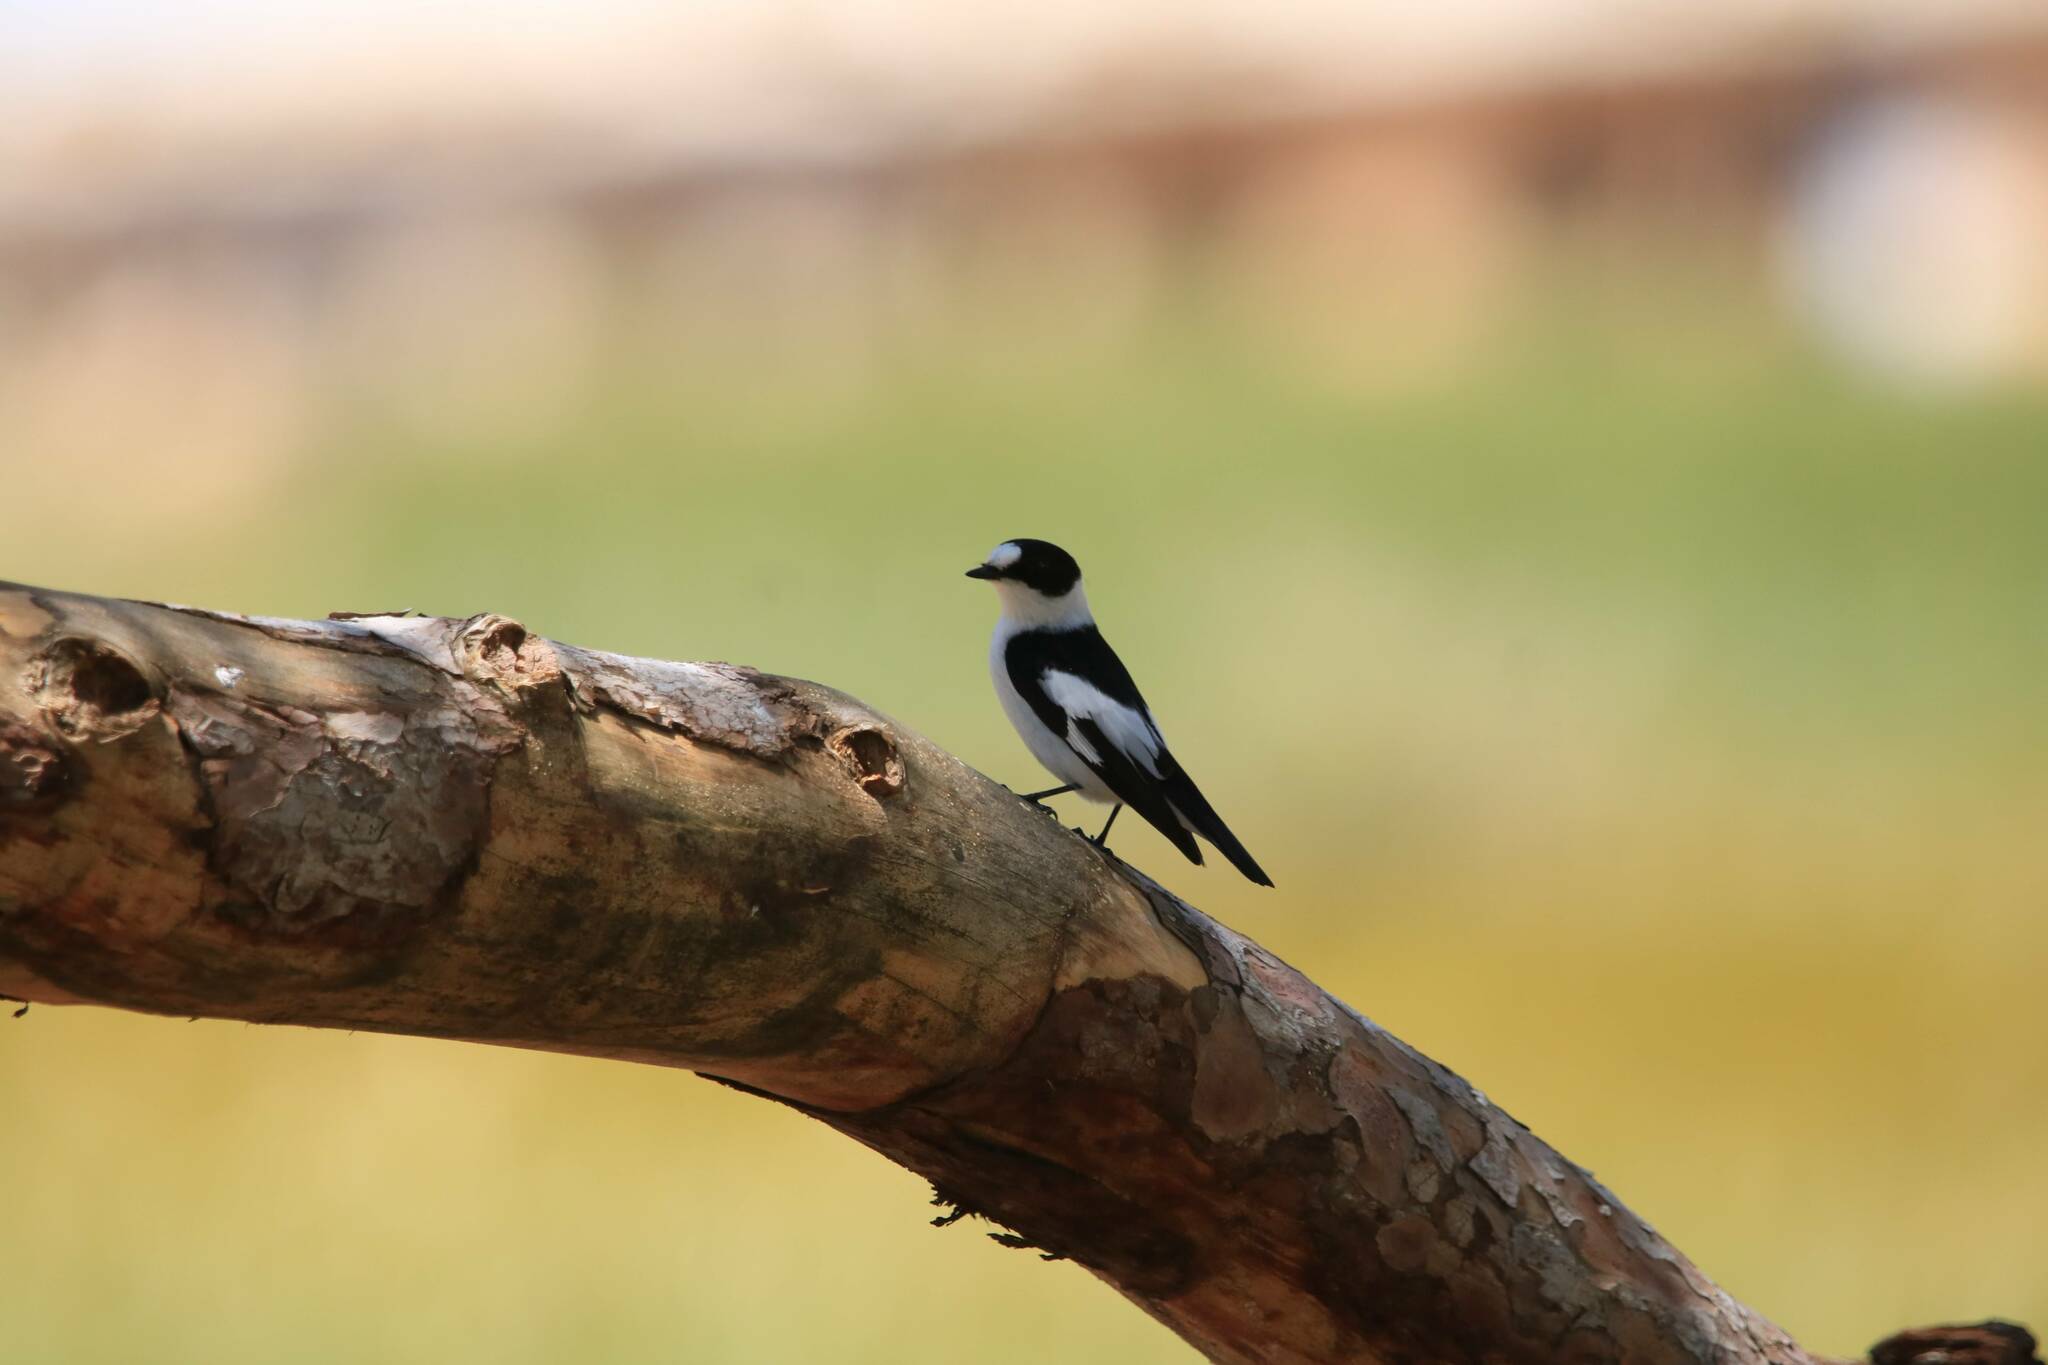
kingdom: Animalia
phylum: Chordata
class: Aves
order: Passeriformes
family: Muscicapidae
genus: Ficedula
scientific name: Ficedula albicollis
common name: Collared flycatcher
